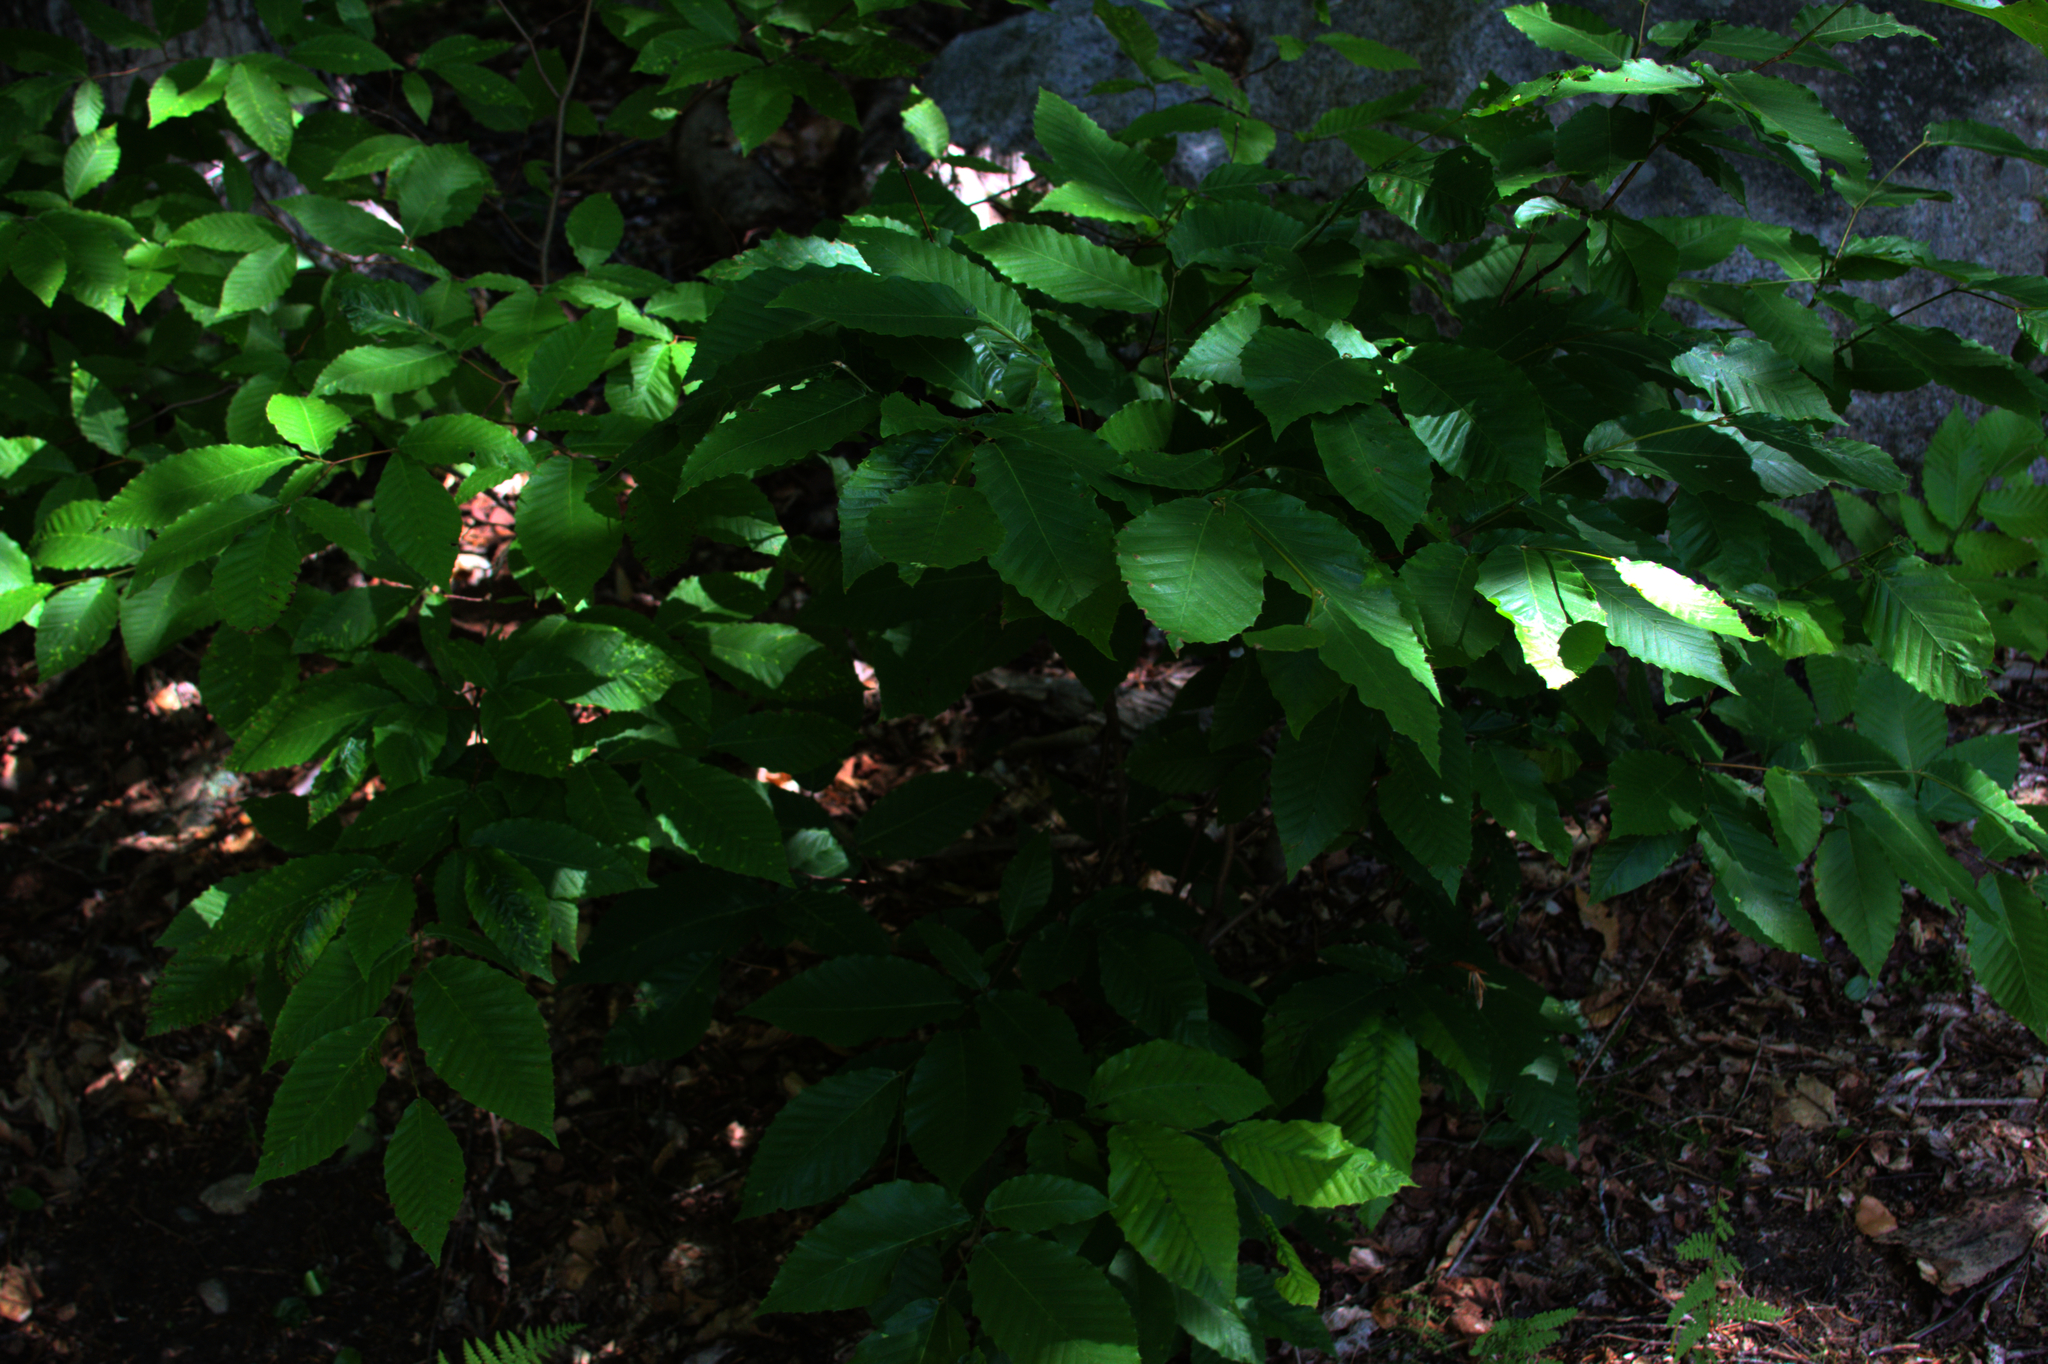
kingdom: Plantae
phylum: Tracheophyta
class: Magnoliopsida
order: Fagales
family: Fagaceae
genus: Fagus
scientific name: Fagus grandifolia
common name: American beech
